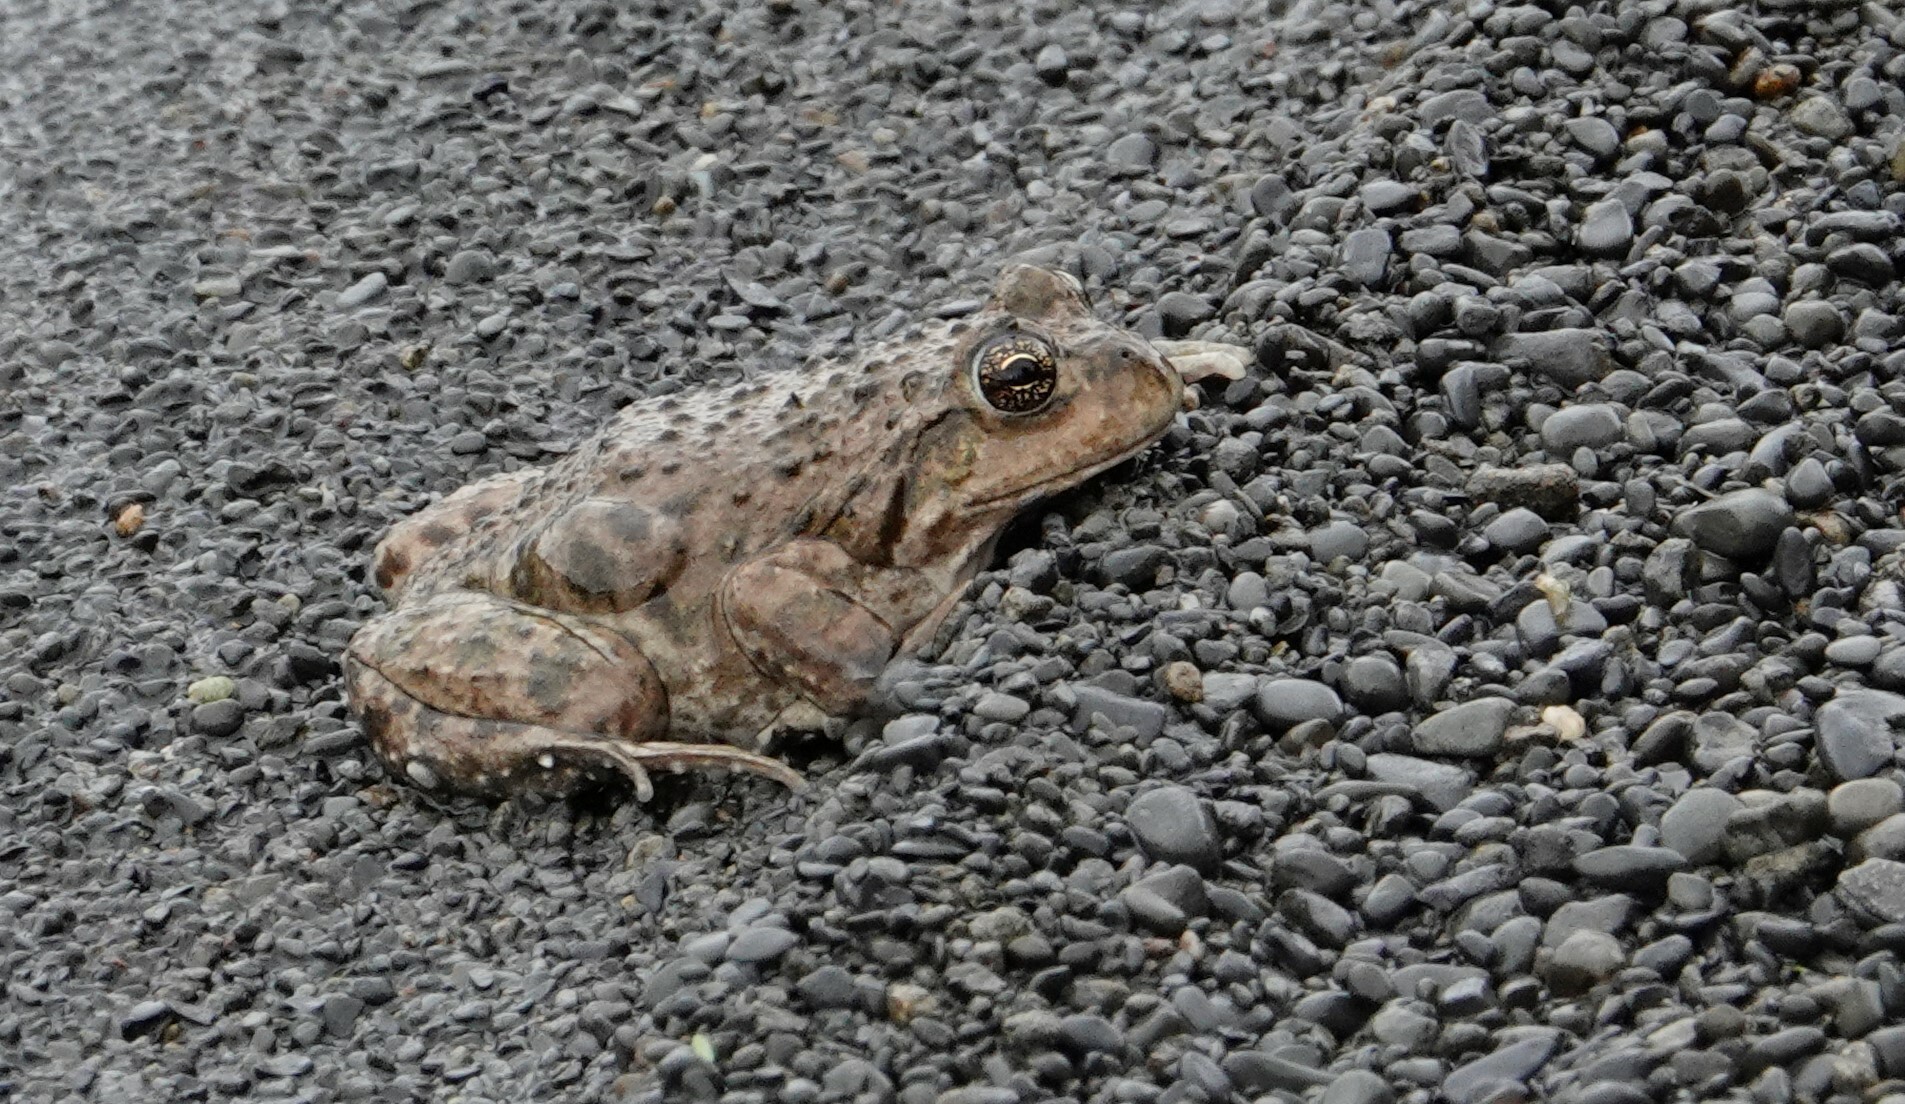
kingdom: Animalia
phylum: Chordata
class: Amphibia
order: Anura
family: Leptodactylidae
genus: Pleurodema
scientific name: Pleurodema bufoninum
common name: Large four-eyed frog
